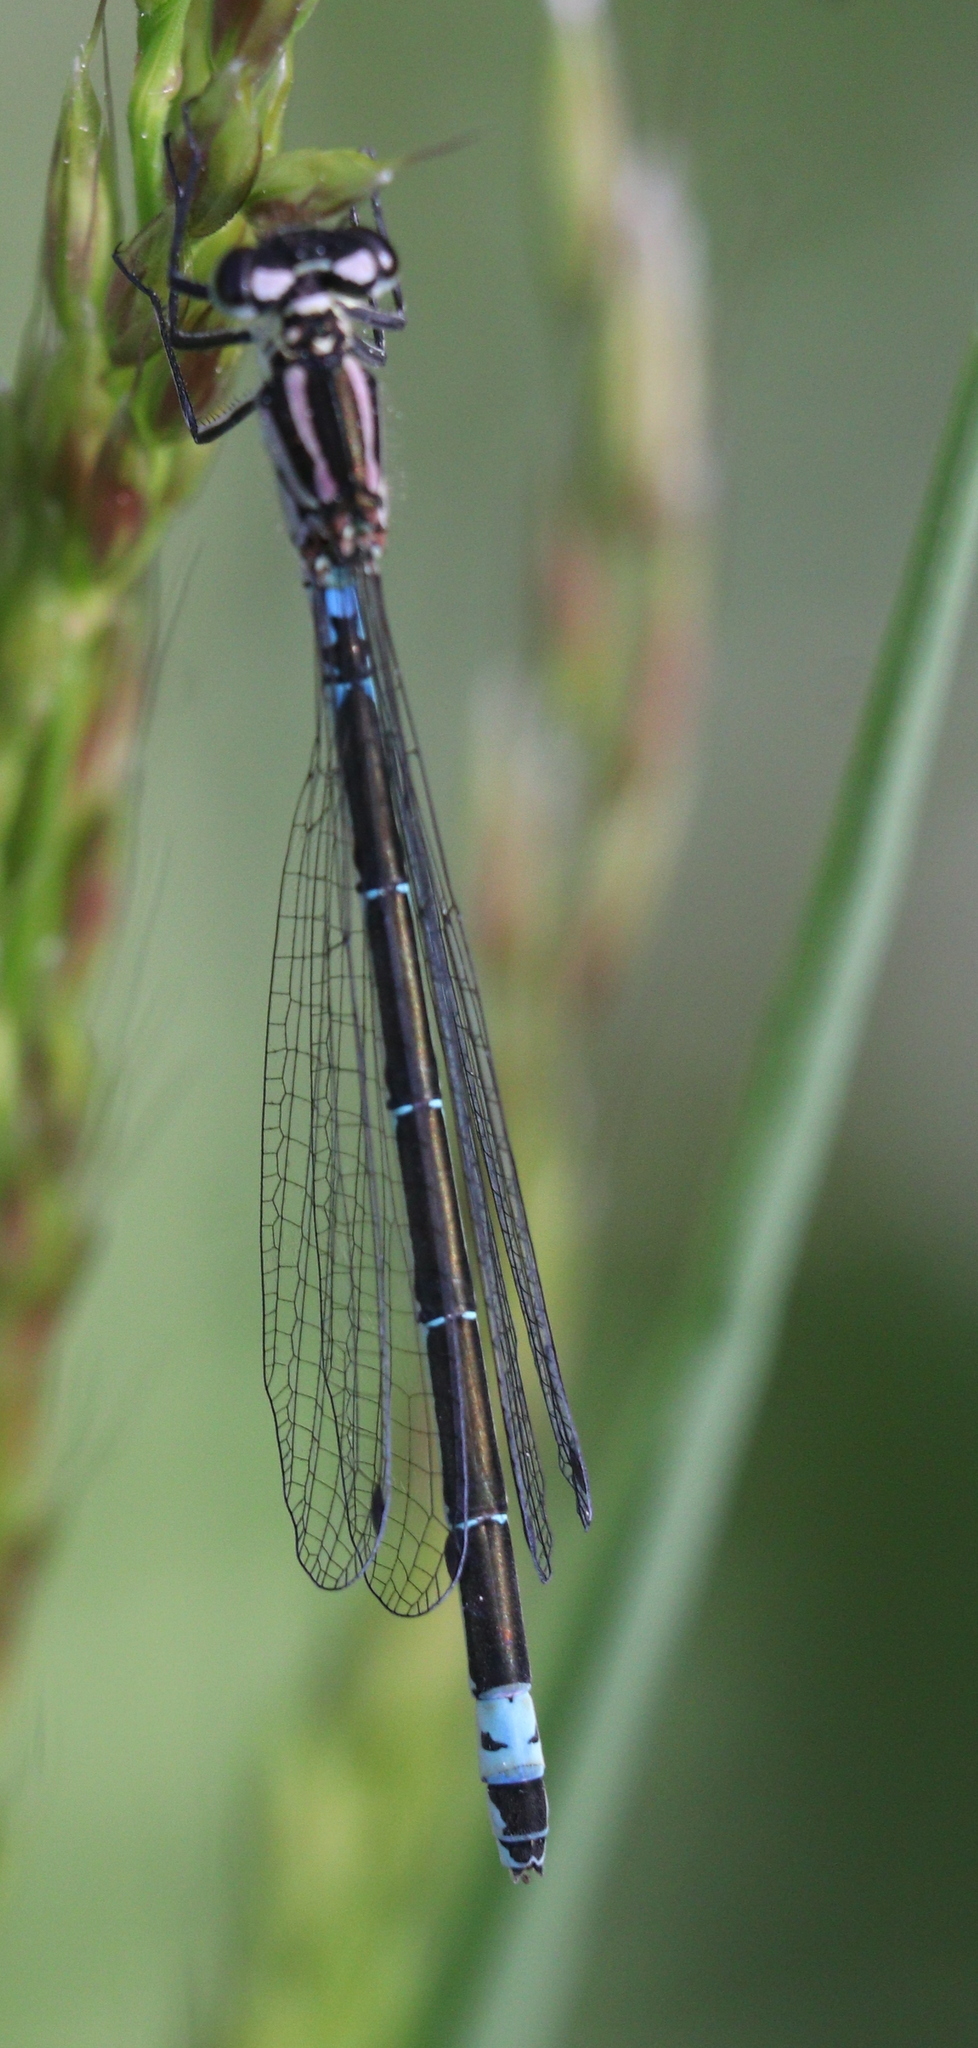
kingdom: Animalia
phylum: Arthropoda
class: Insecta
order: Odonata
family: Coenagrionidae
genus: Coenagrion
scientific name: Coenagrion pulchellum
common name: Variable bluet
